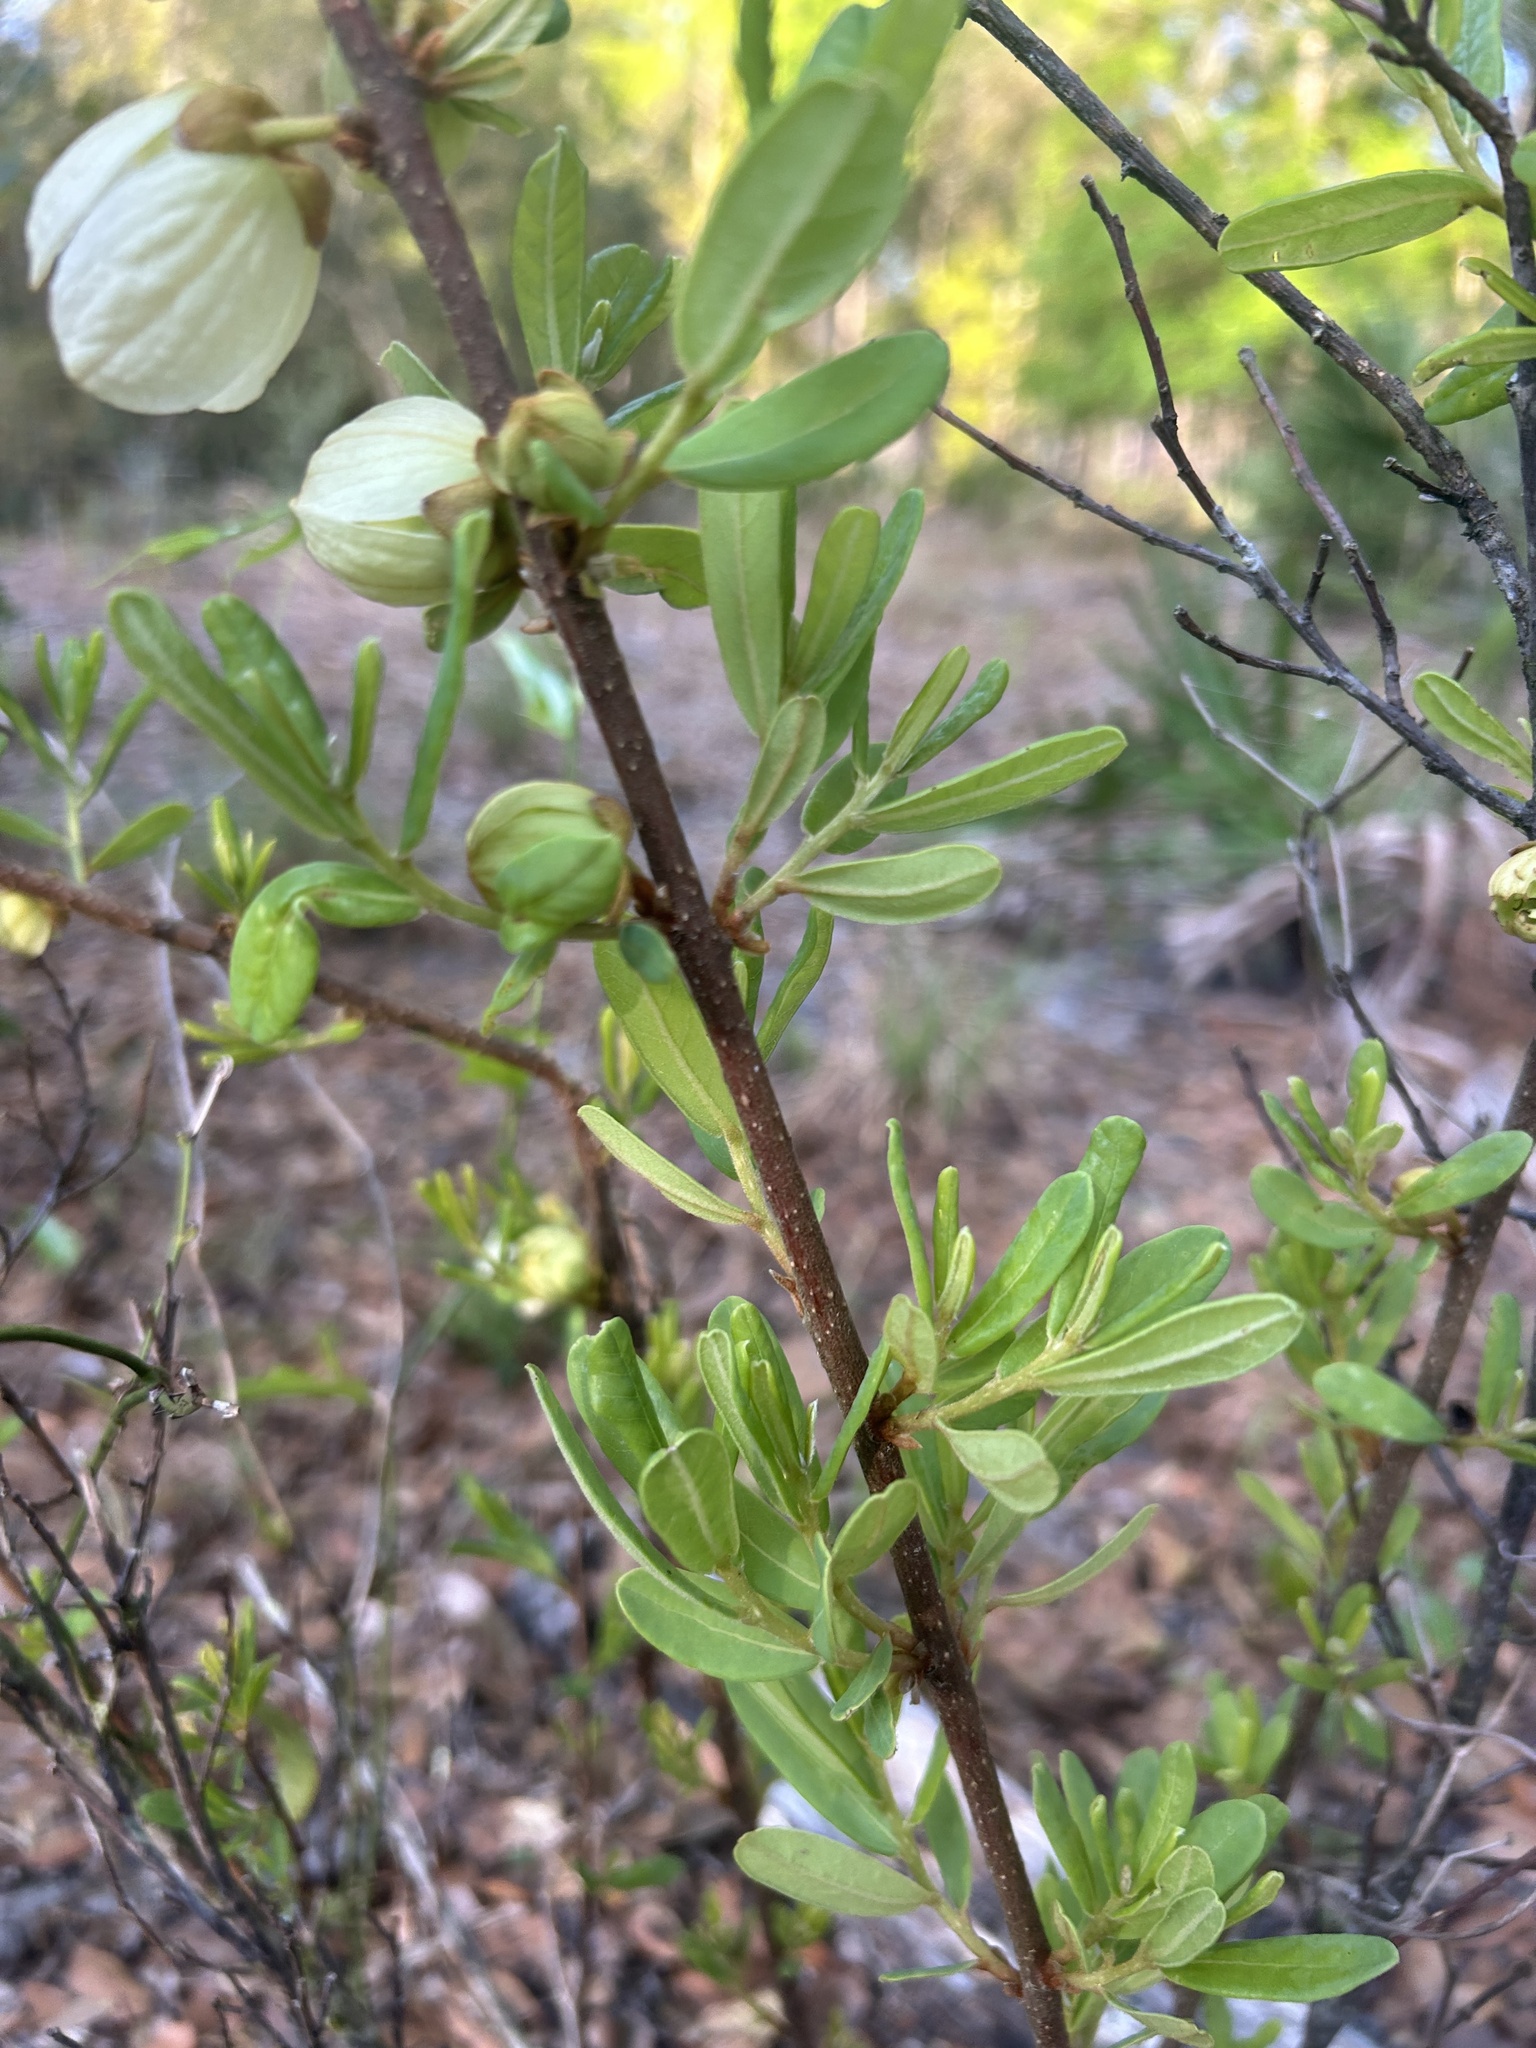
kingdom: Plantae
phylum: Tracheophyta
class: Magnoliopsida
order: Magnoliales
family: Annonaceae
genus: Asimina
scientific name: Asimina reticulata
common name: Flag pawpaw
